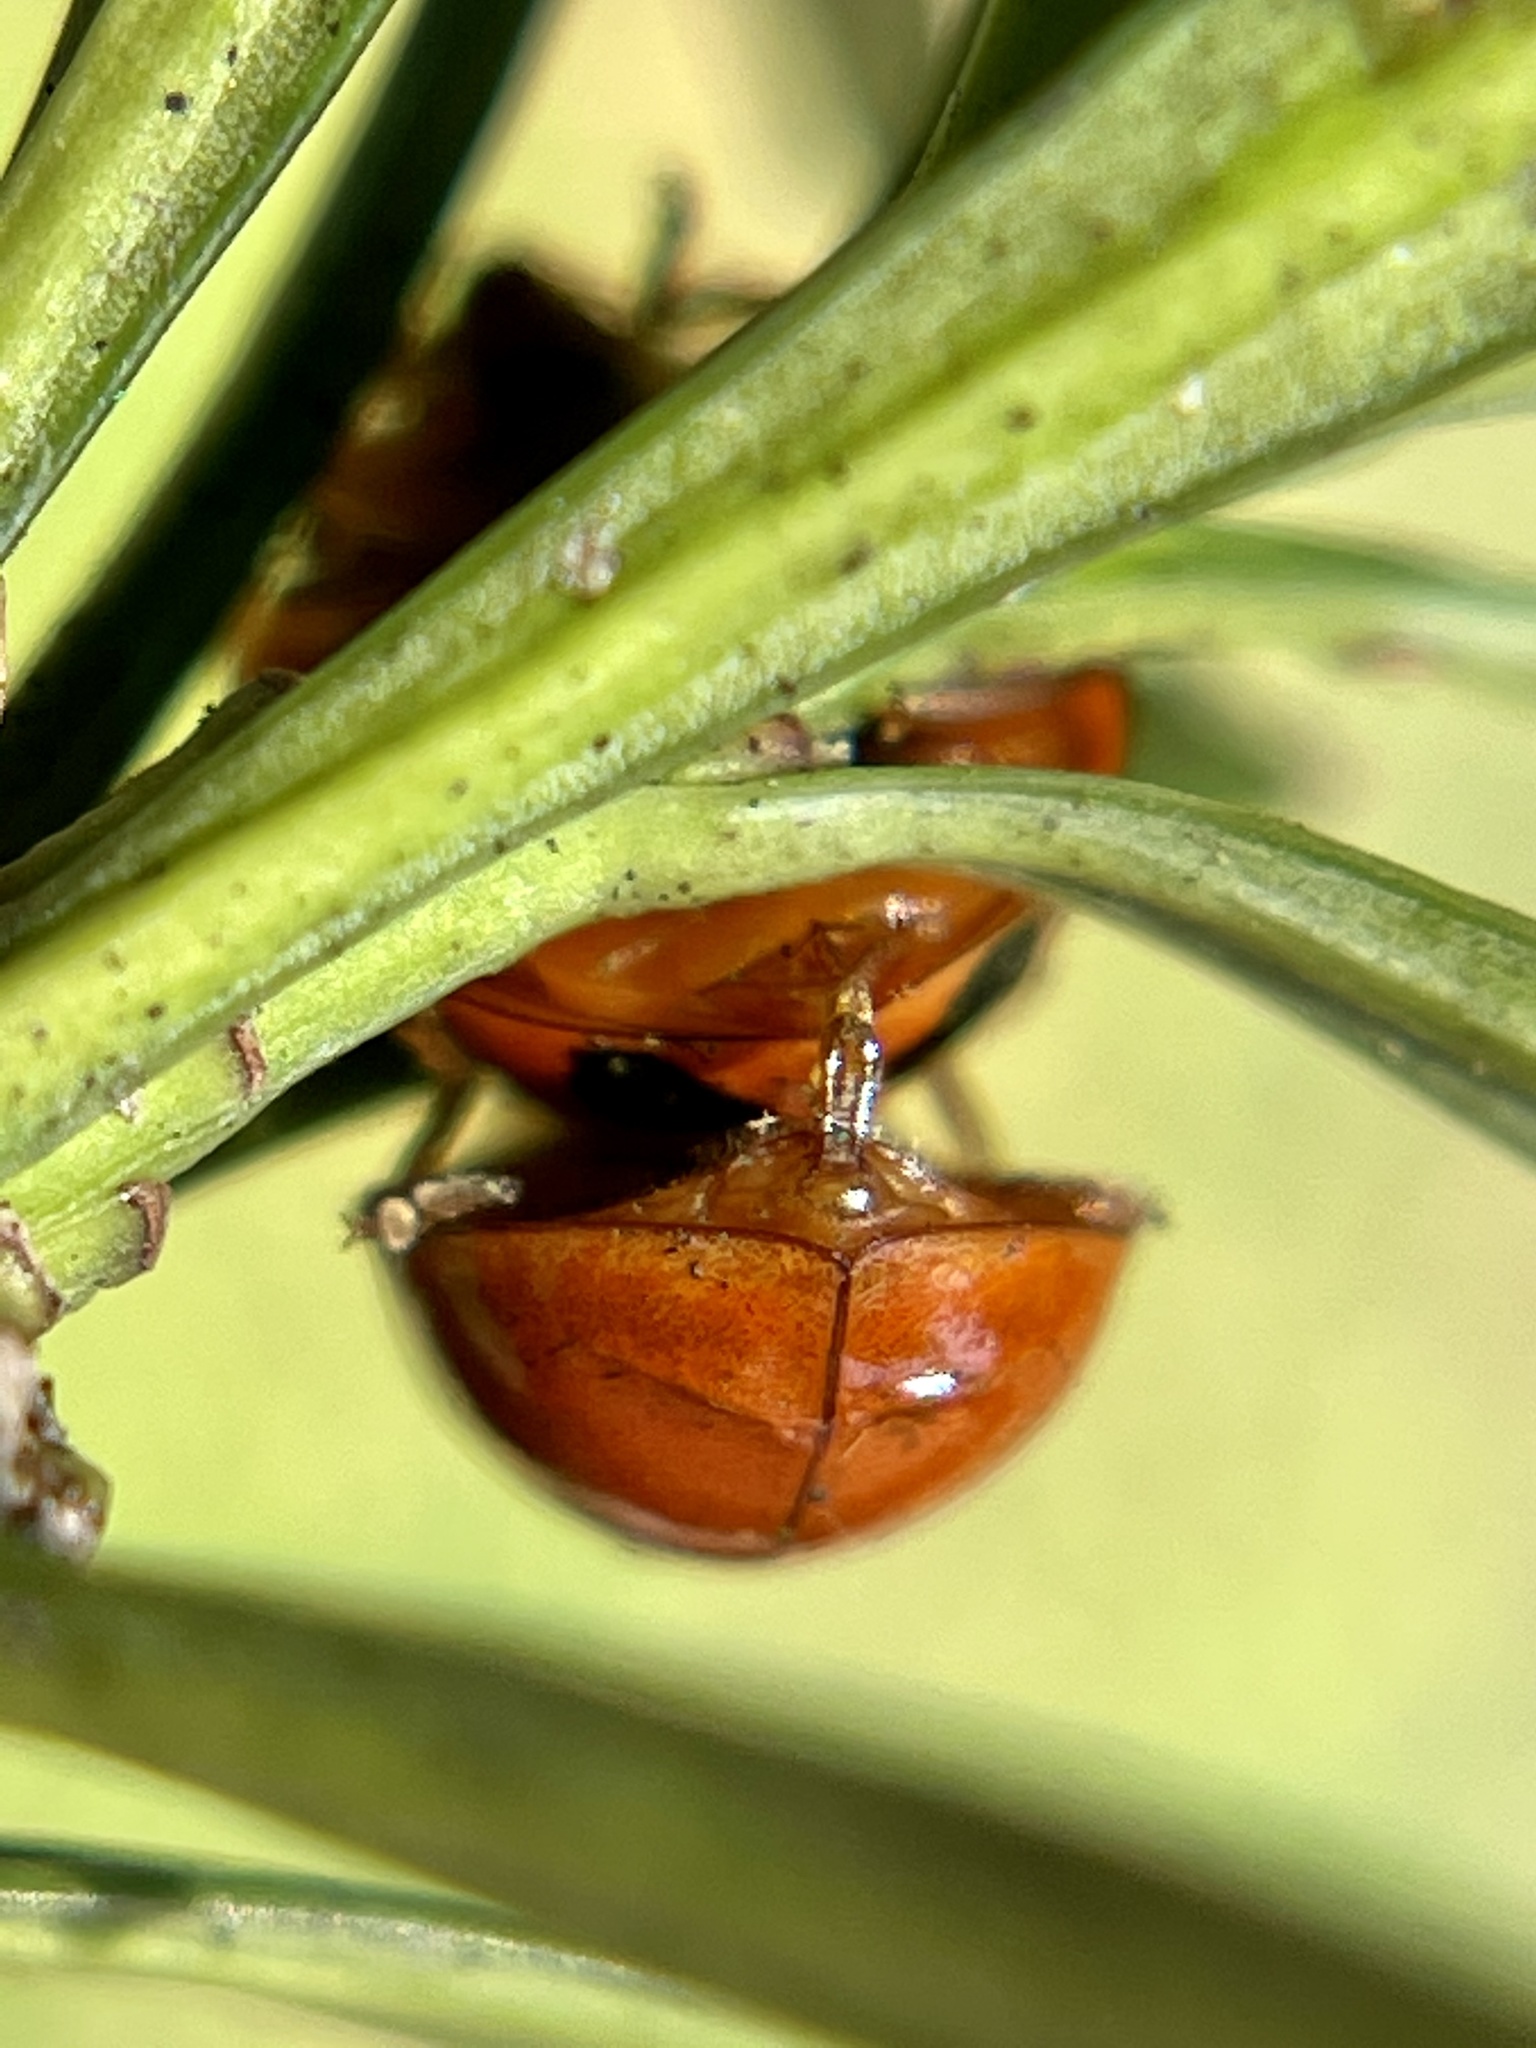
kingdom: Animalia
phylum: Arthropoda
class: Insecta
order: Coleoptera
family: Coccinellidae
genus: Harmonia
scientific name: Harmonia axyridis
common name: Harlequin ladybird
